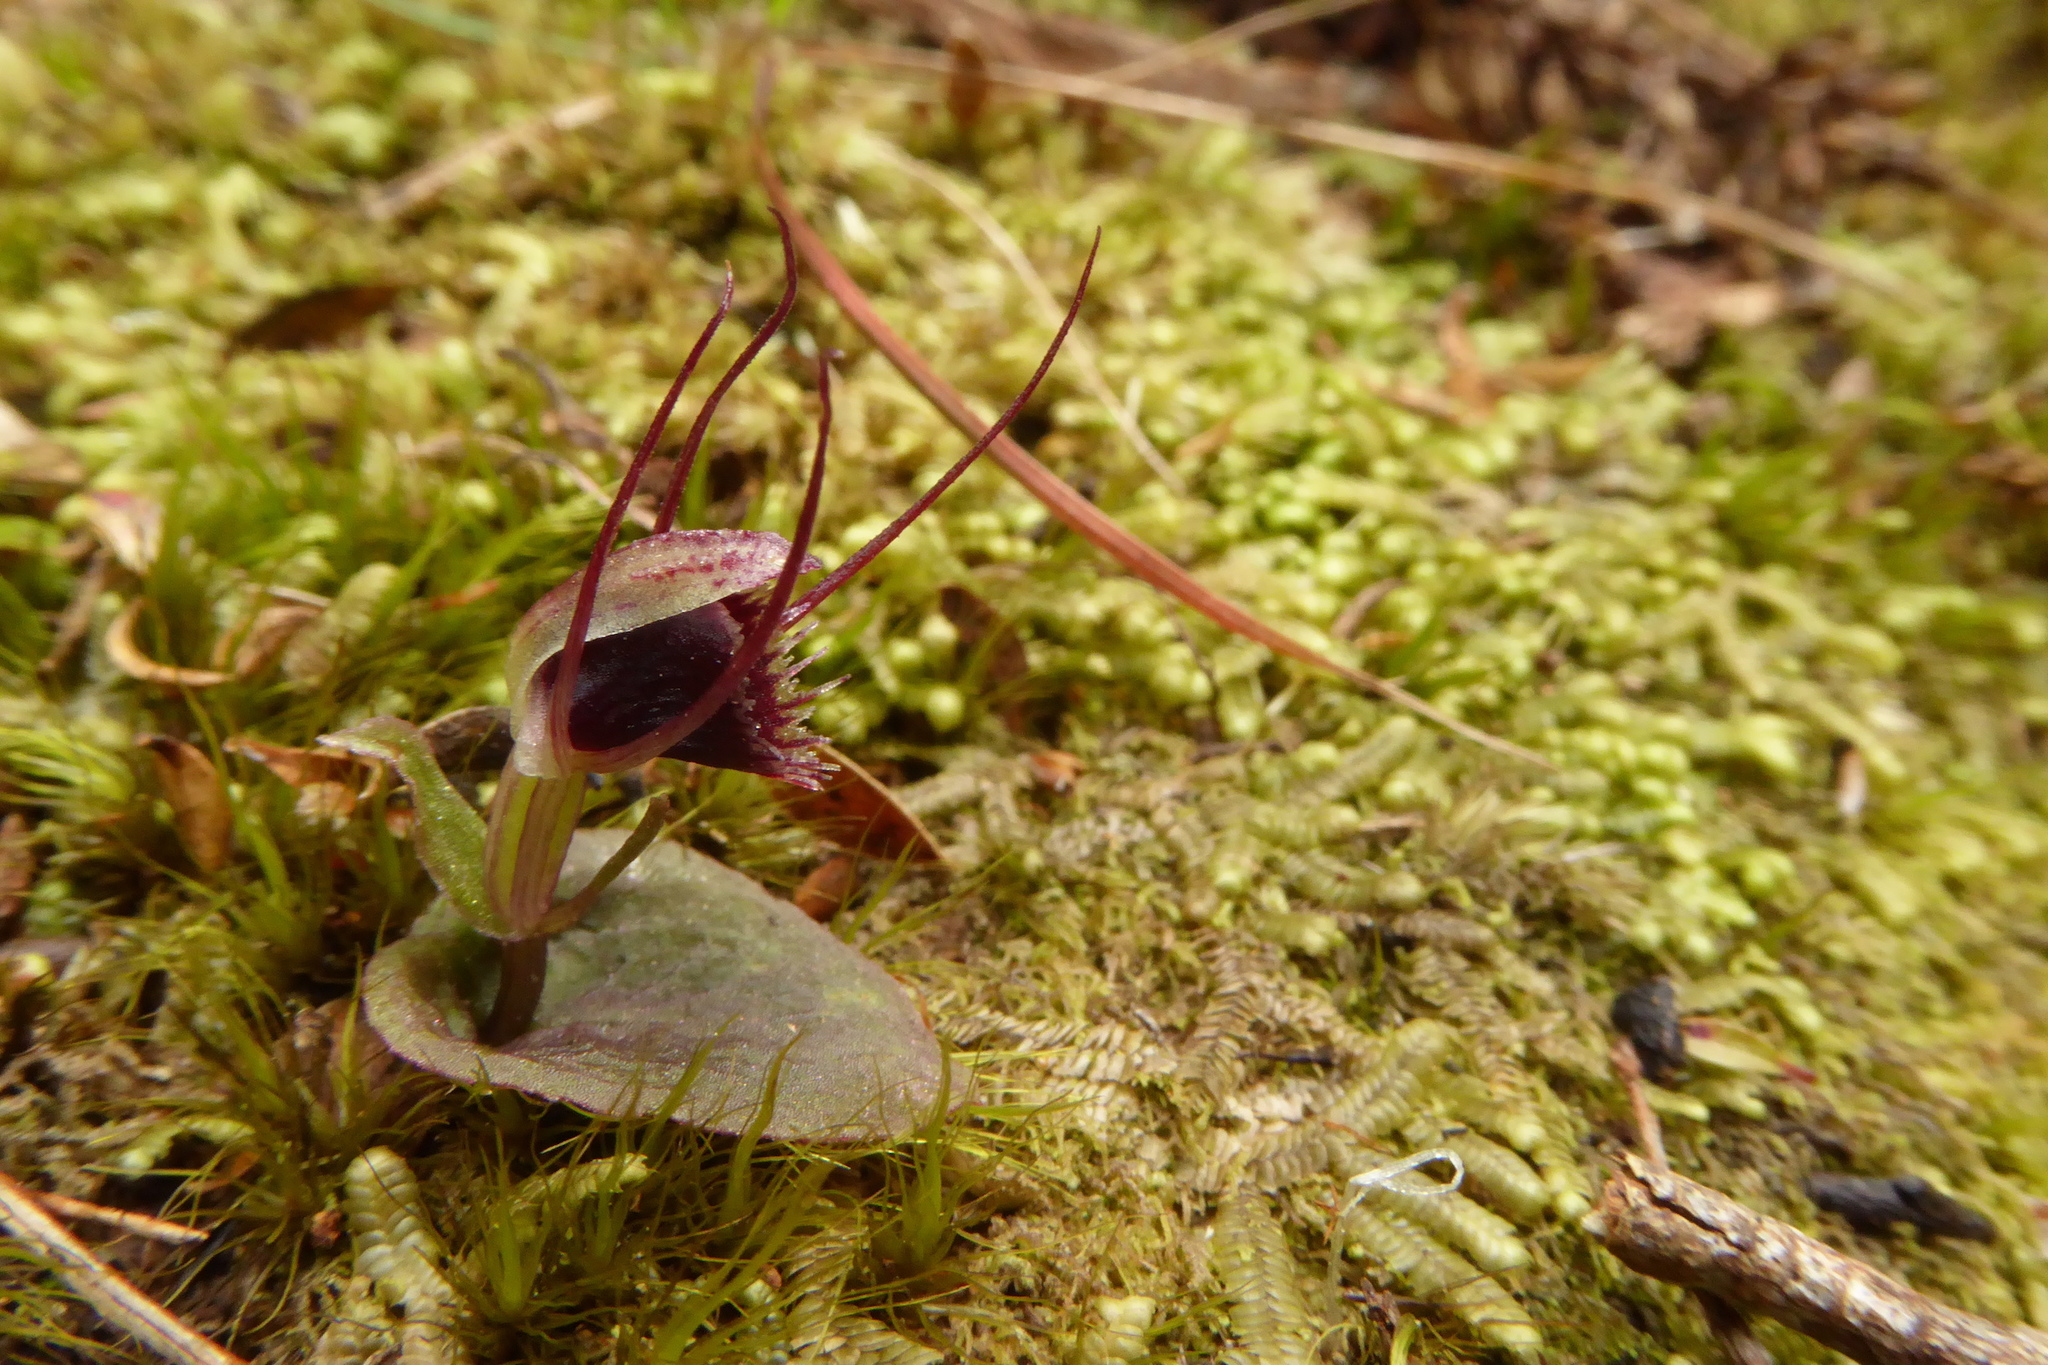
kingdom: Plantae
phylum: Tracheophyta
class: Liliopsida
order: Asparagales
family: Orchidaceae
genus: Corybas
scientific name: Corybas oblongus
